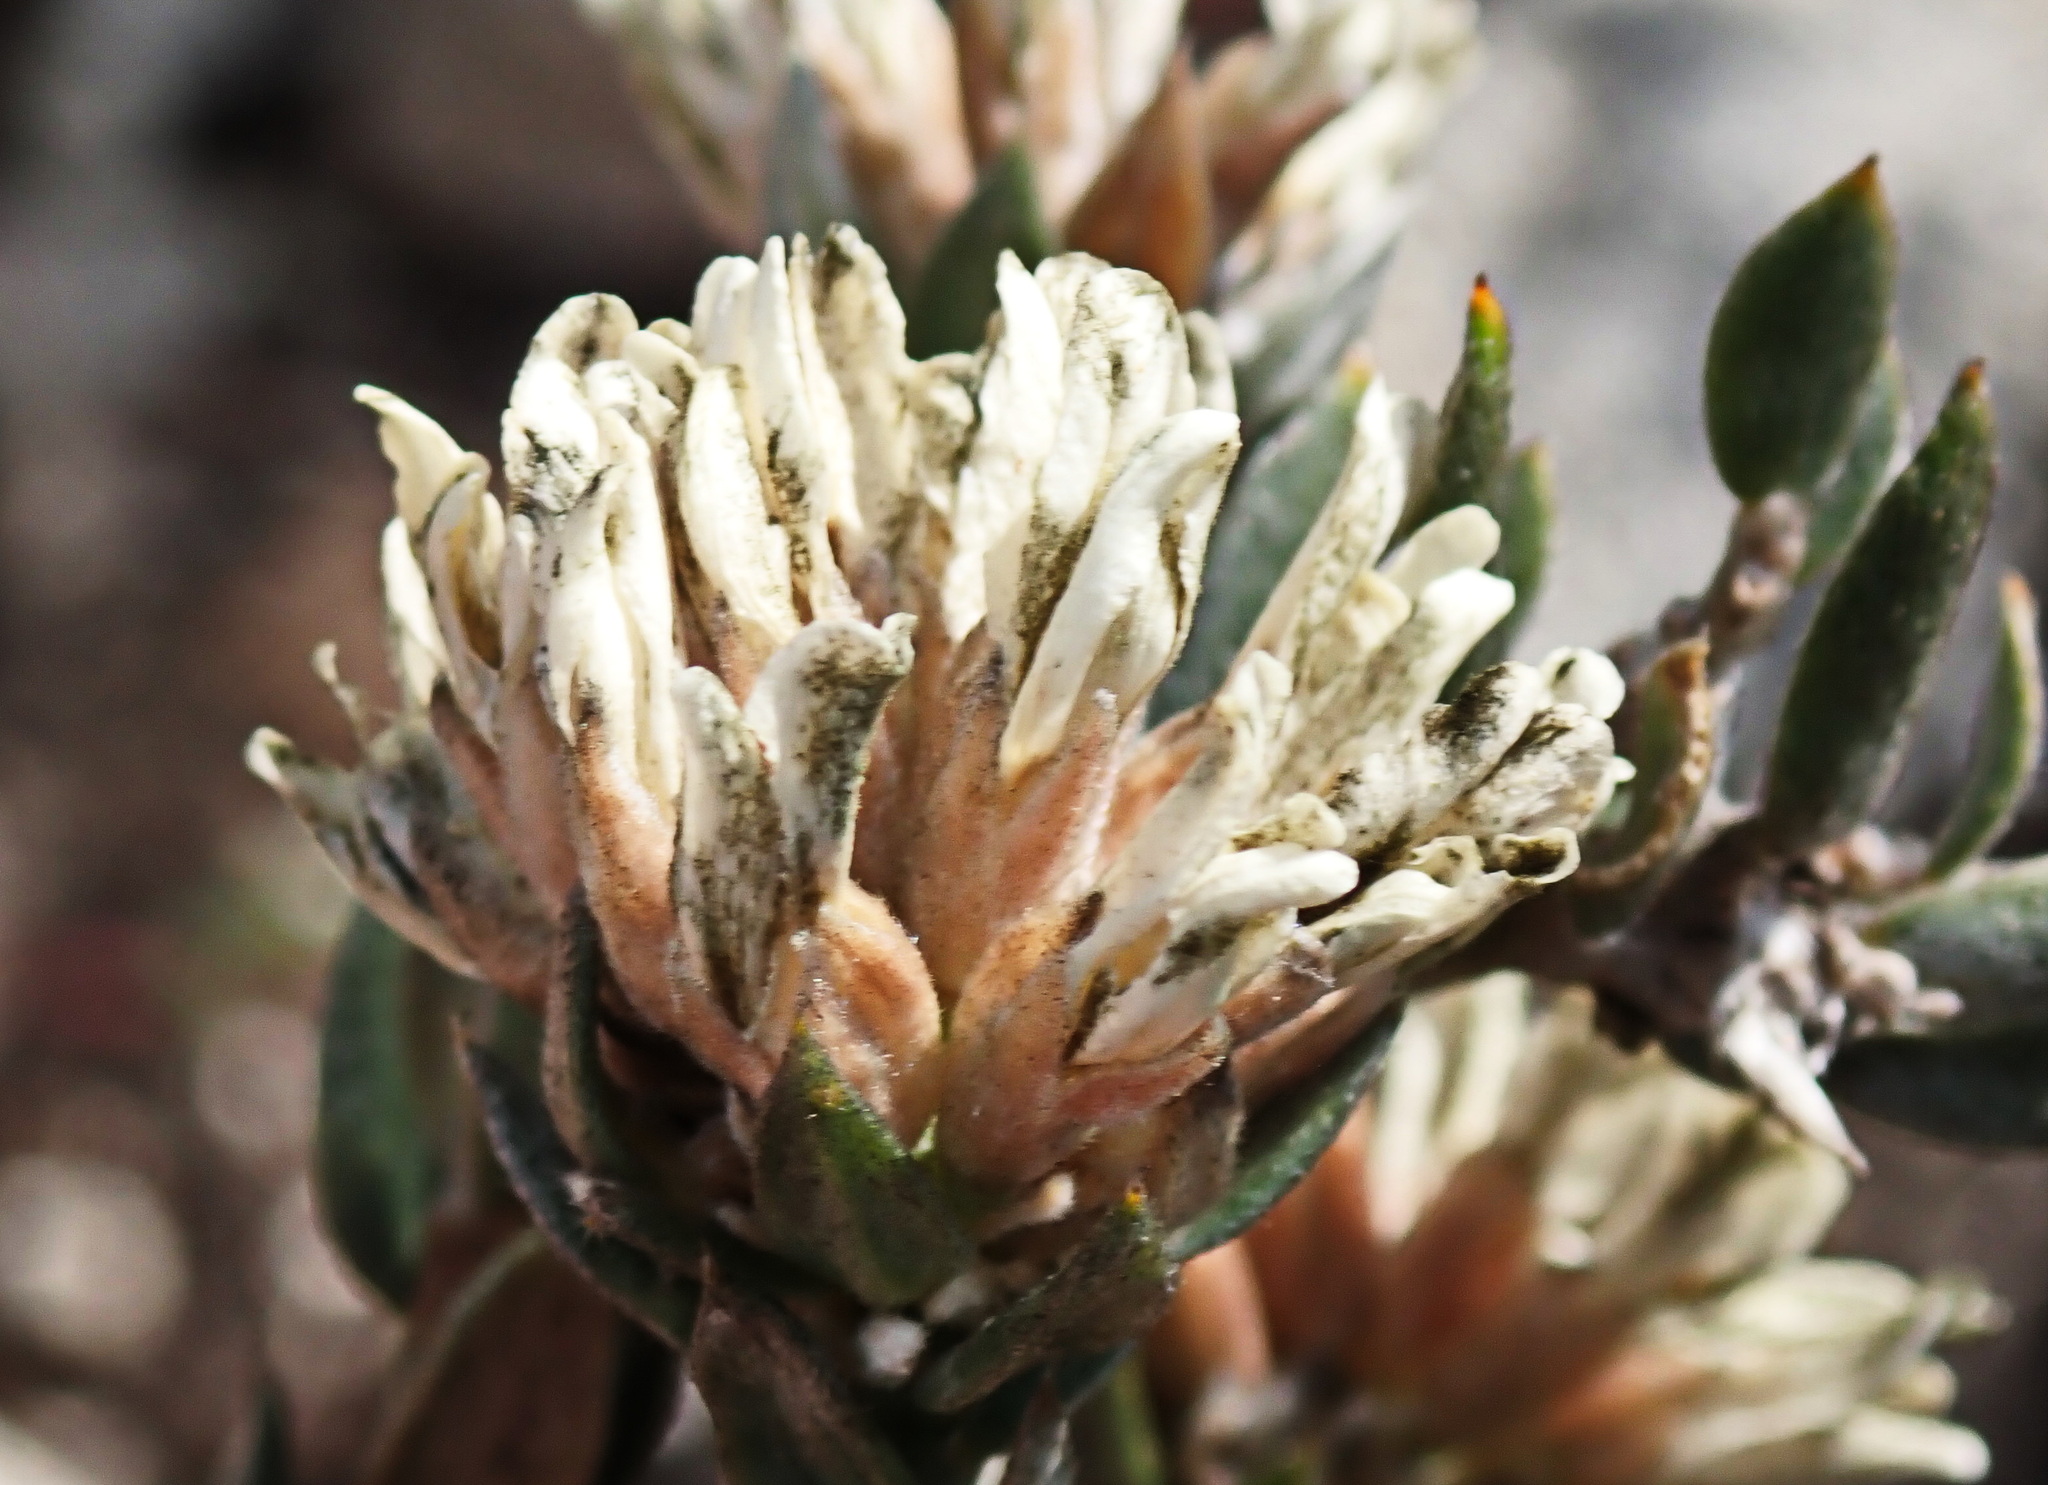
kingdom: Plantae
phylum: Tracheophyta
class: Magnoliopsida
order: Fabales
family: Fabaceae
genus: Amphithalea
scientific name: Amphithalea alba
